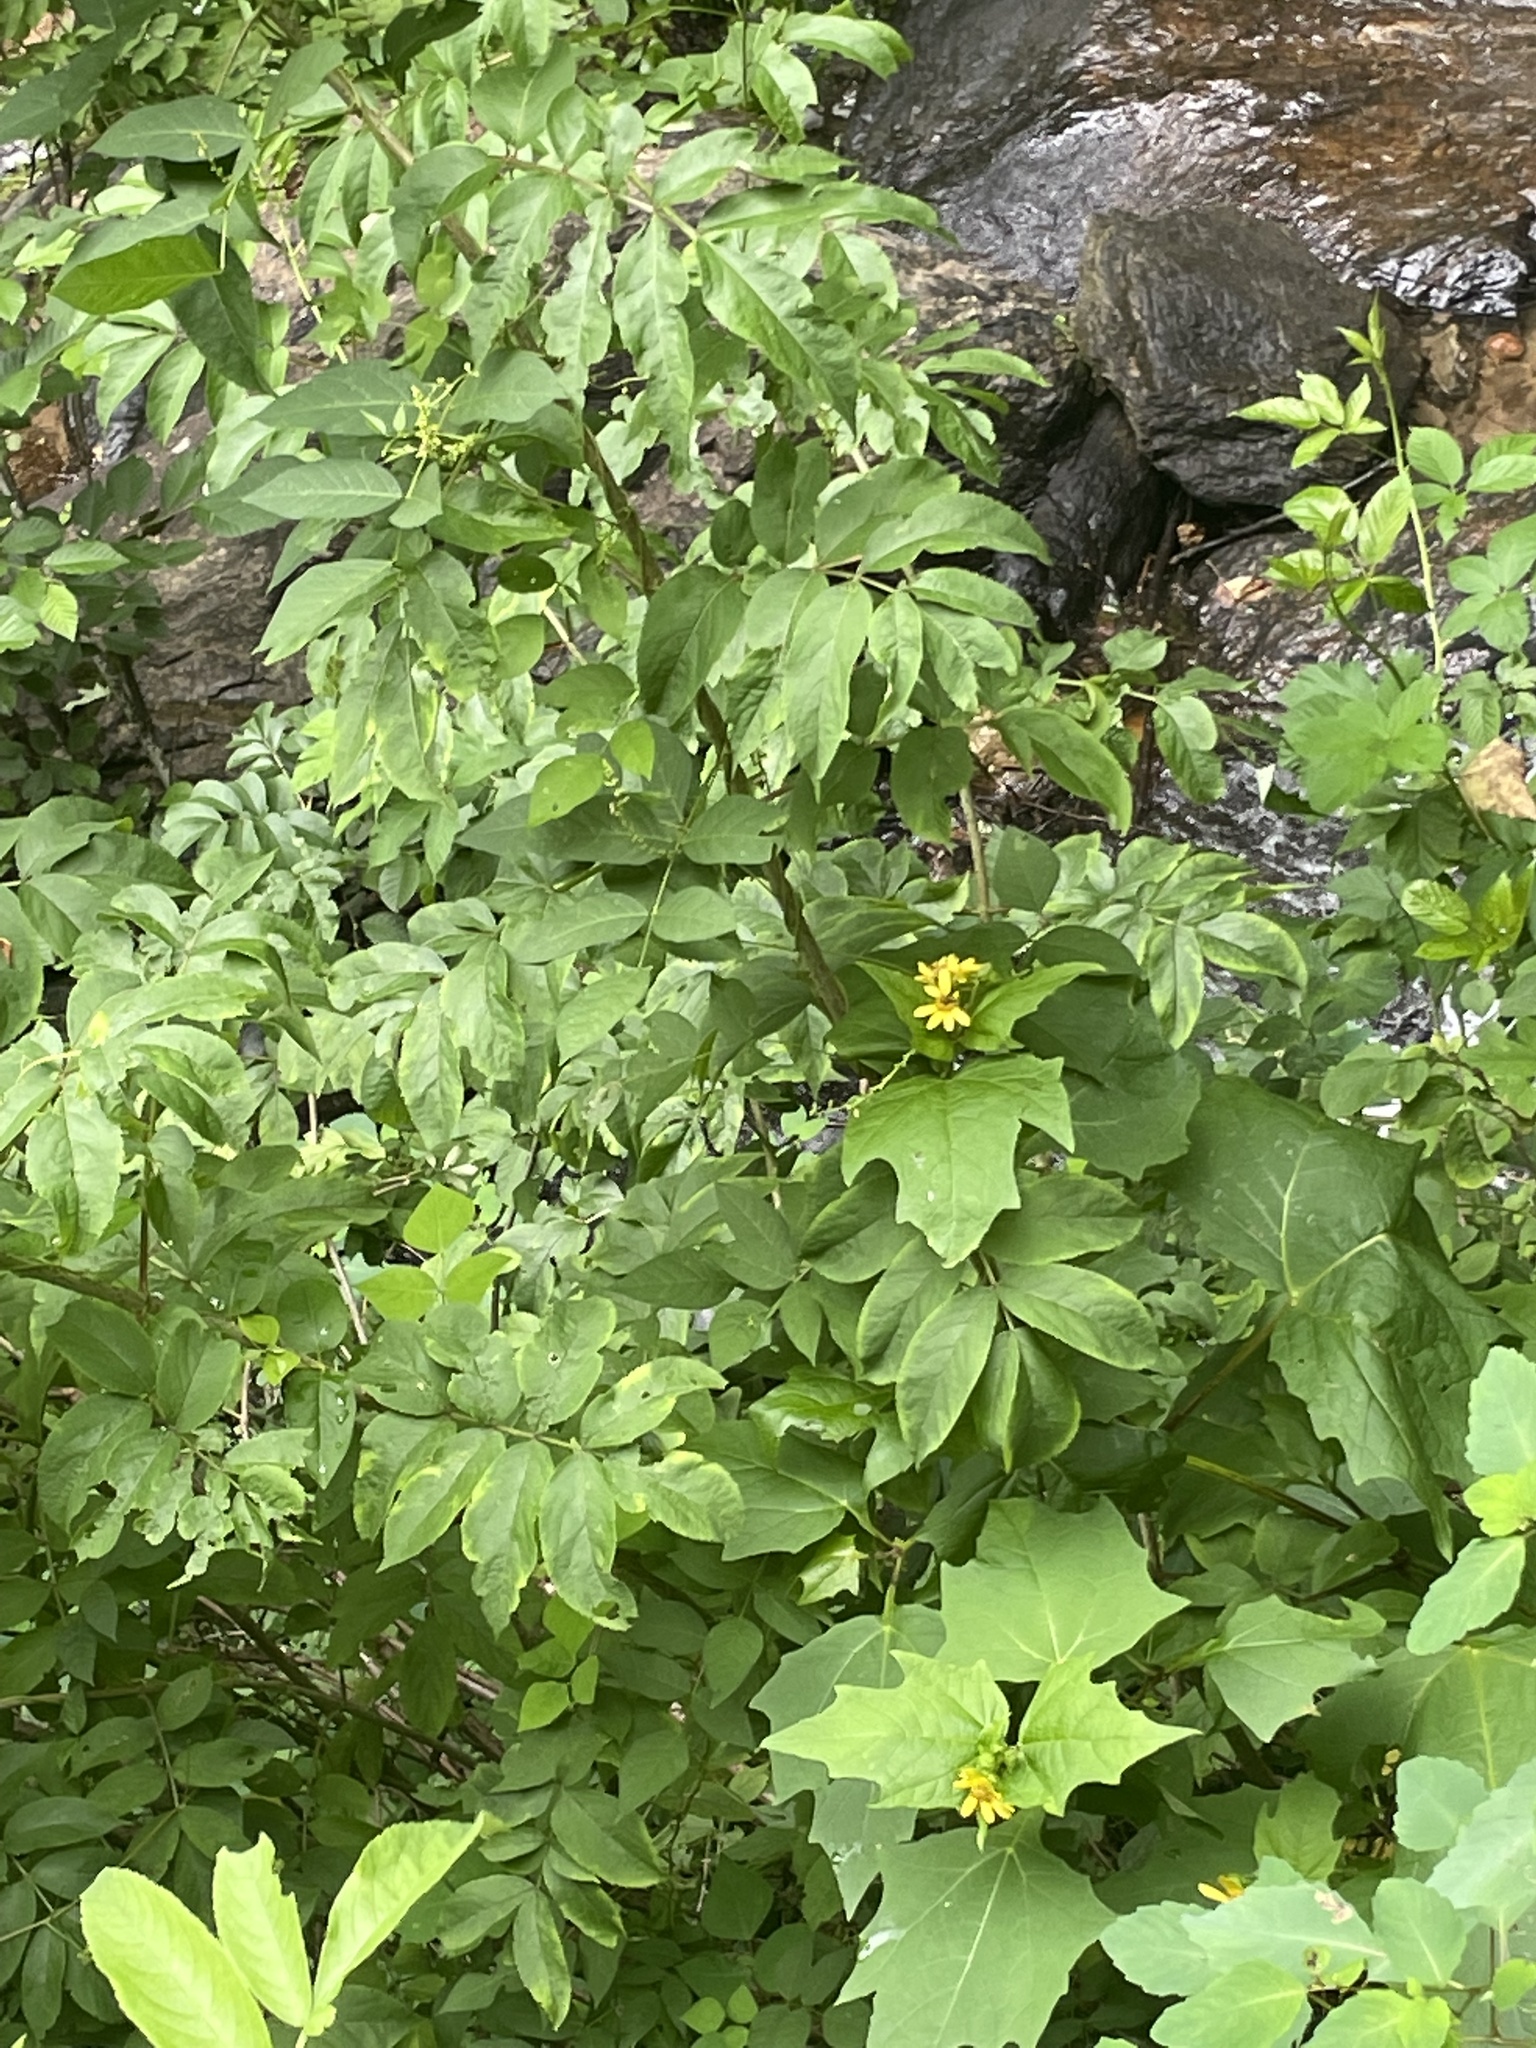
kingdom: Plantae
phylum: Tracheophyta
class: Magnoliopsida
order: Asterales
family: Asteraceae
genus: Smallanthus
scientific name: Smallanthus uvedalia
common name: Bear's-foot
